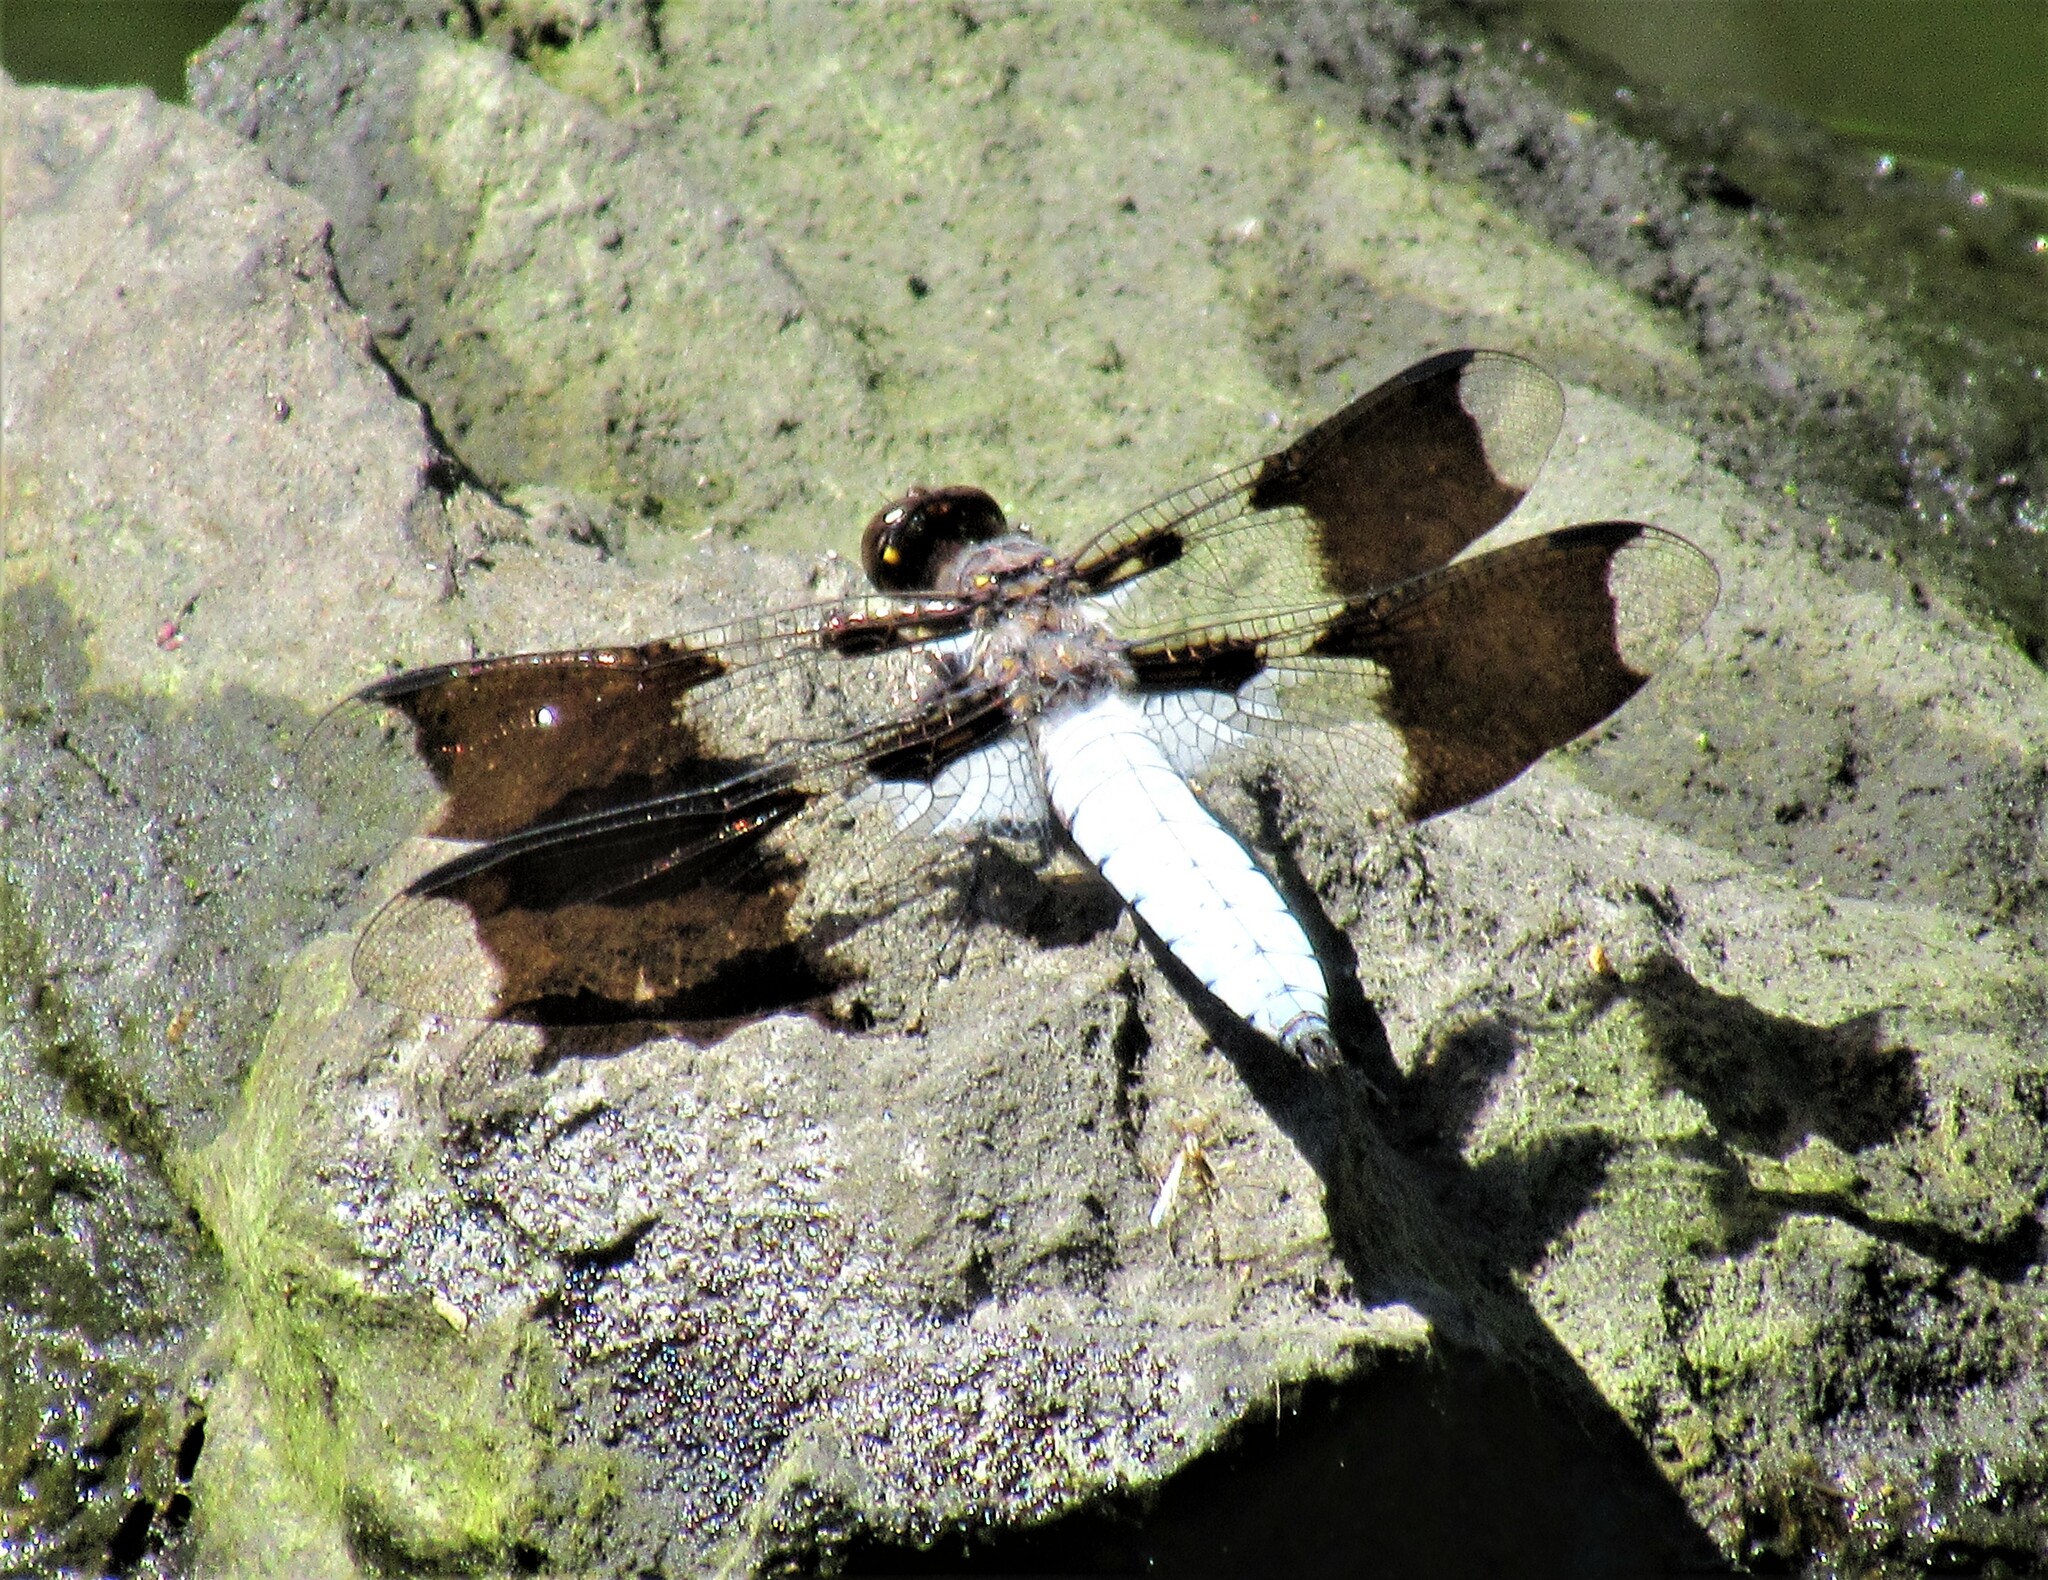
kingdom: Animalia
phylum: Arthropoda
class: Insecta
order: Odonata
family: Libellulidae
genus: Plathemis
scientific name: Plathemis lydia
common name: Common whitetail
